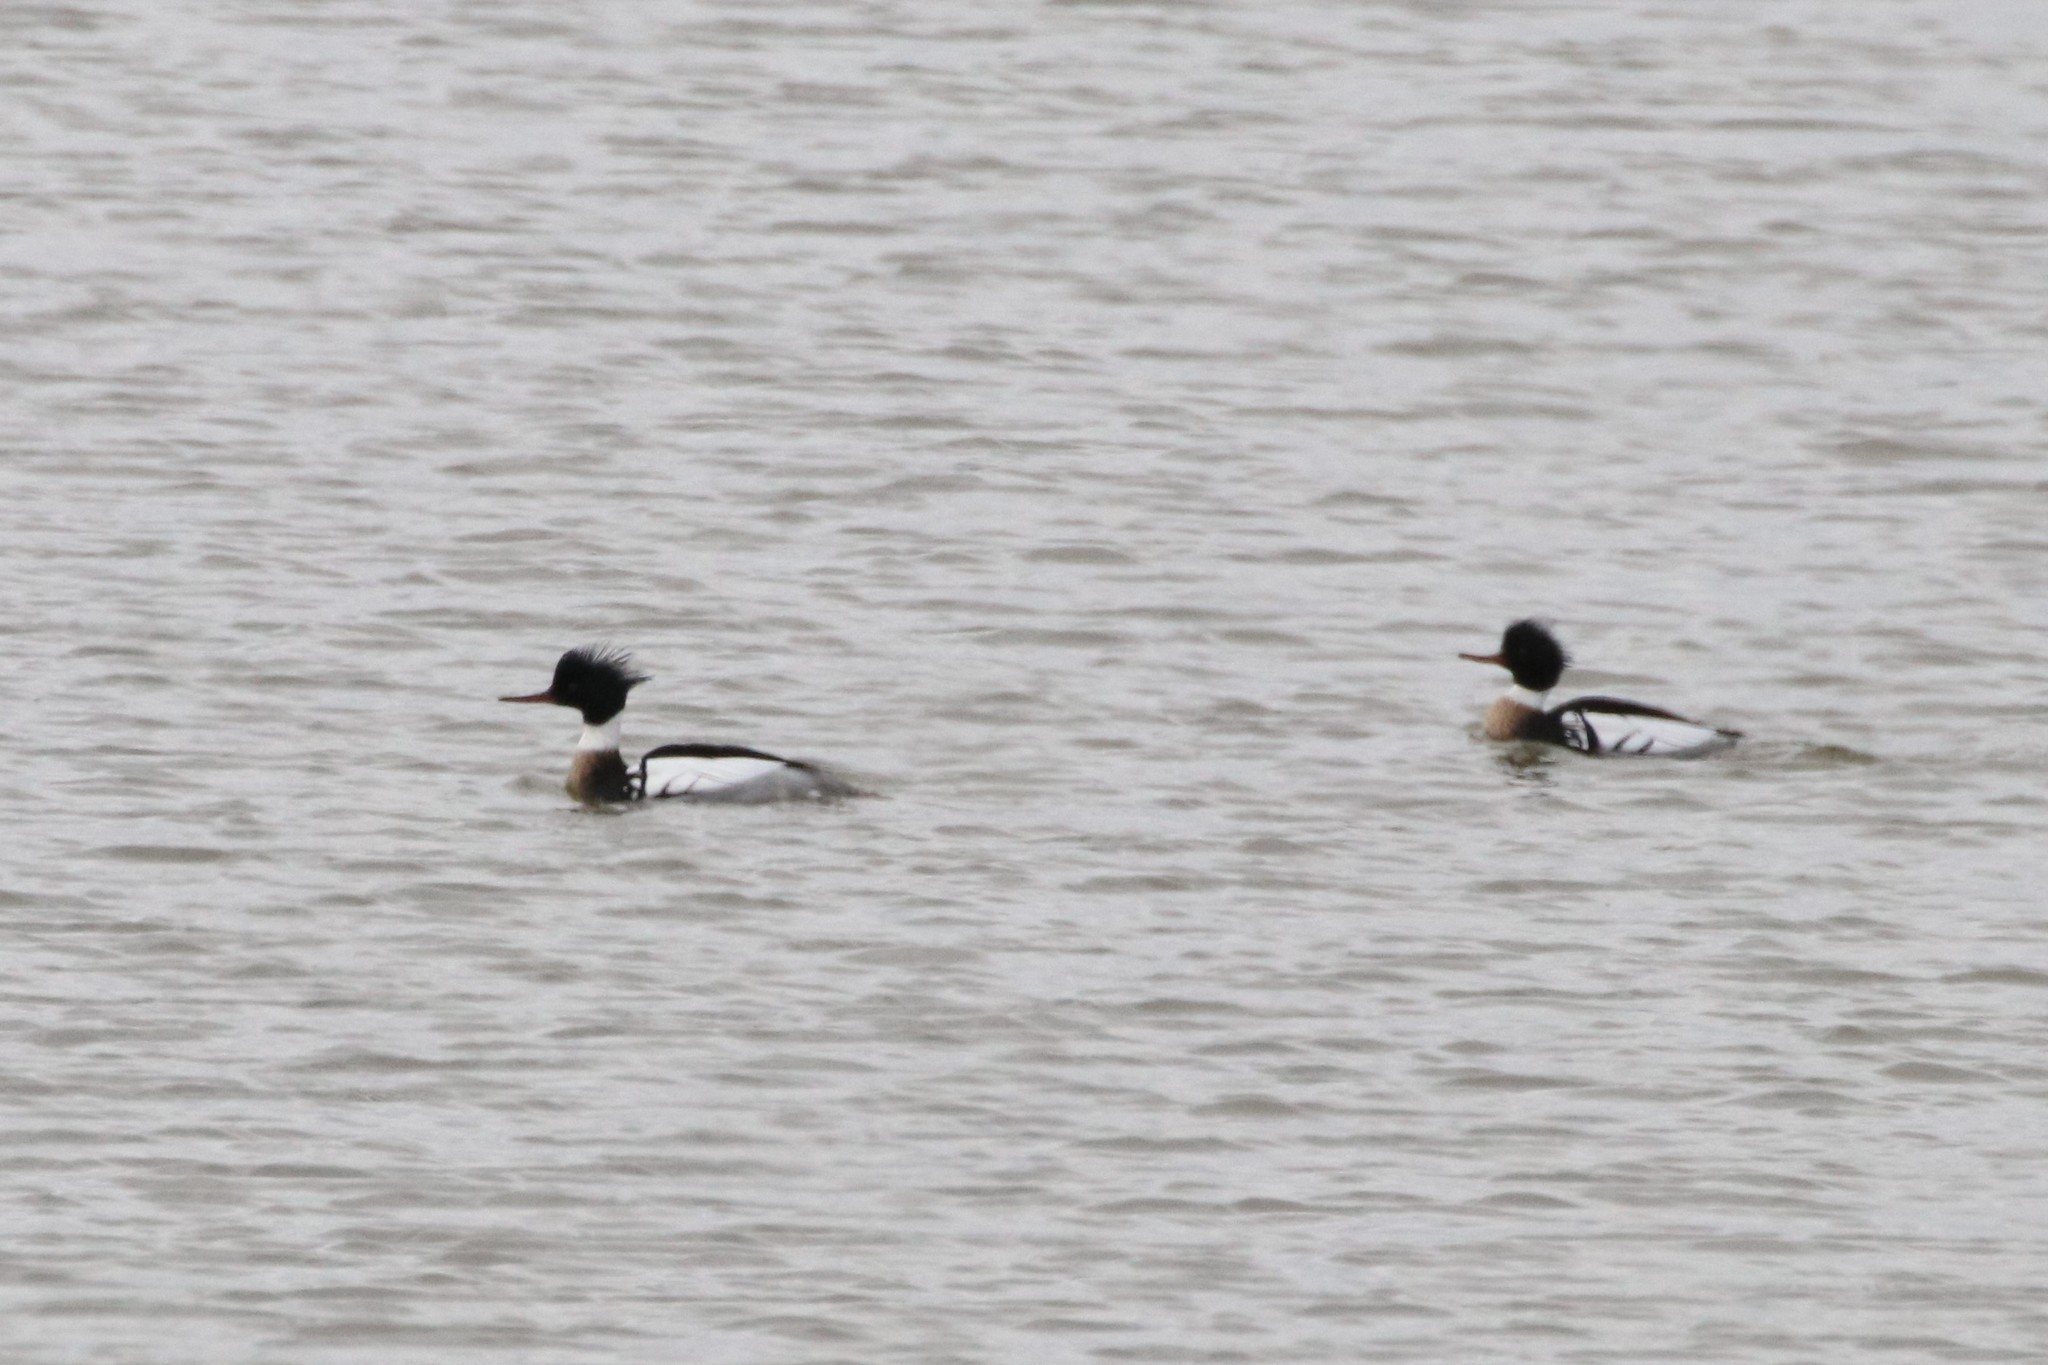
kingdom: Animalia
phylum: Chordata
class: Aves
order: Anseriformes
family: Anatidae
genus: Mergus
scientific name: Mergus serrator
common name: Red-breasted merganser
